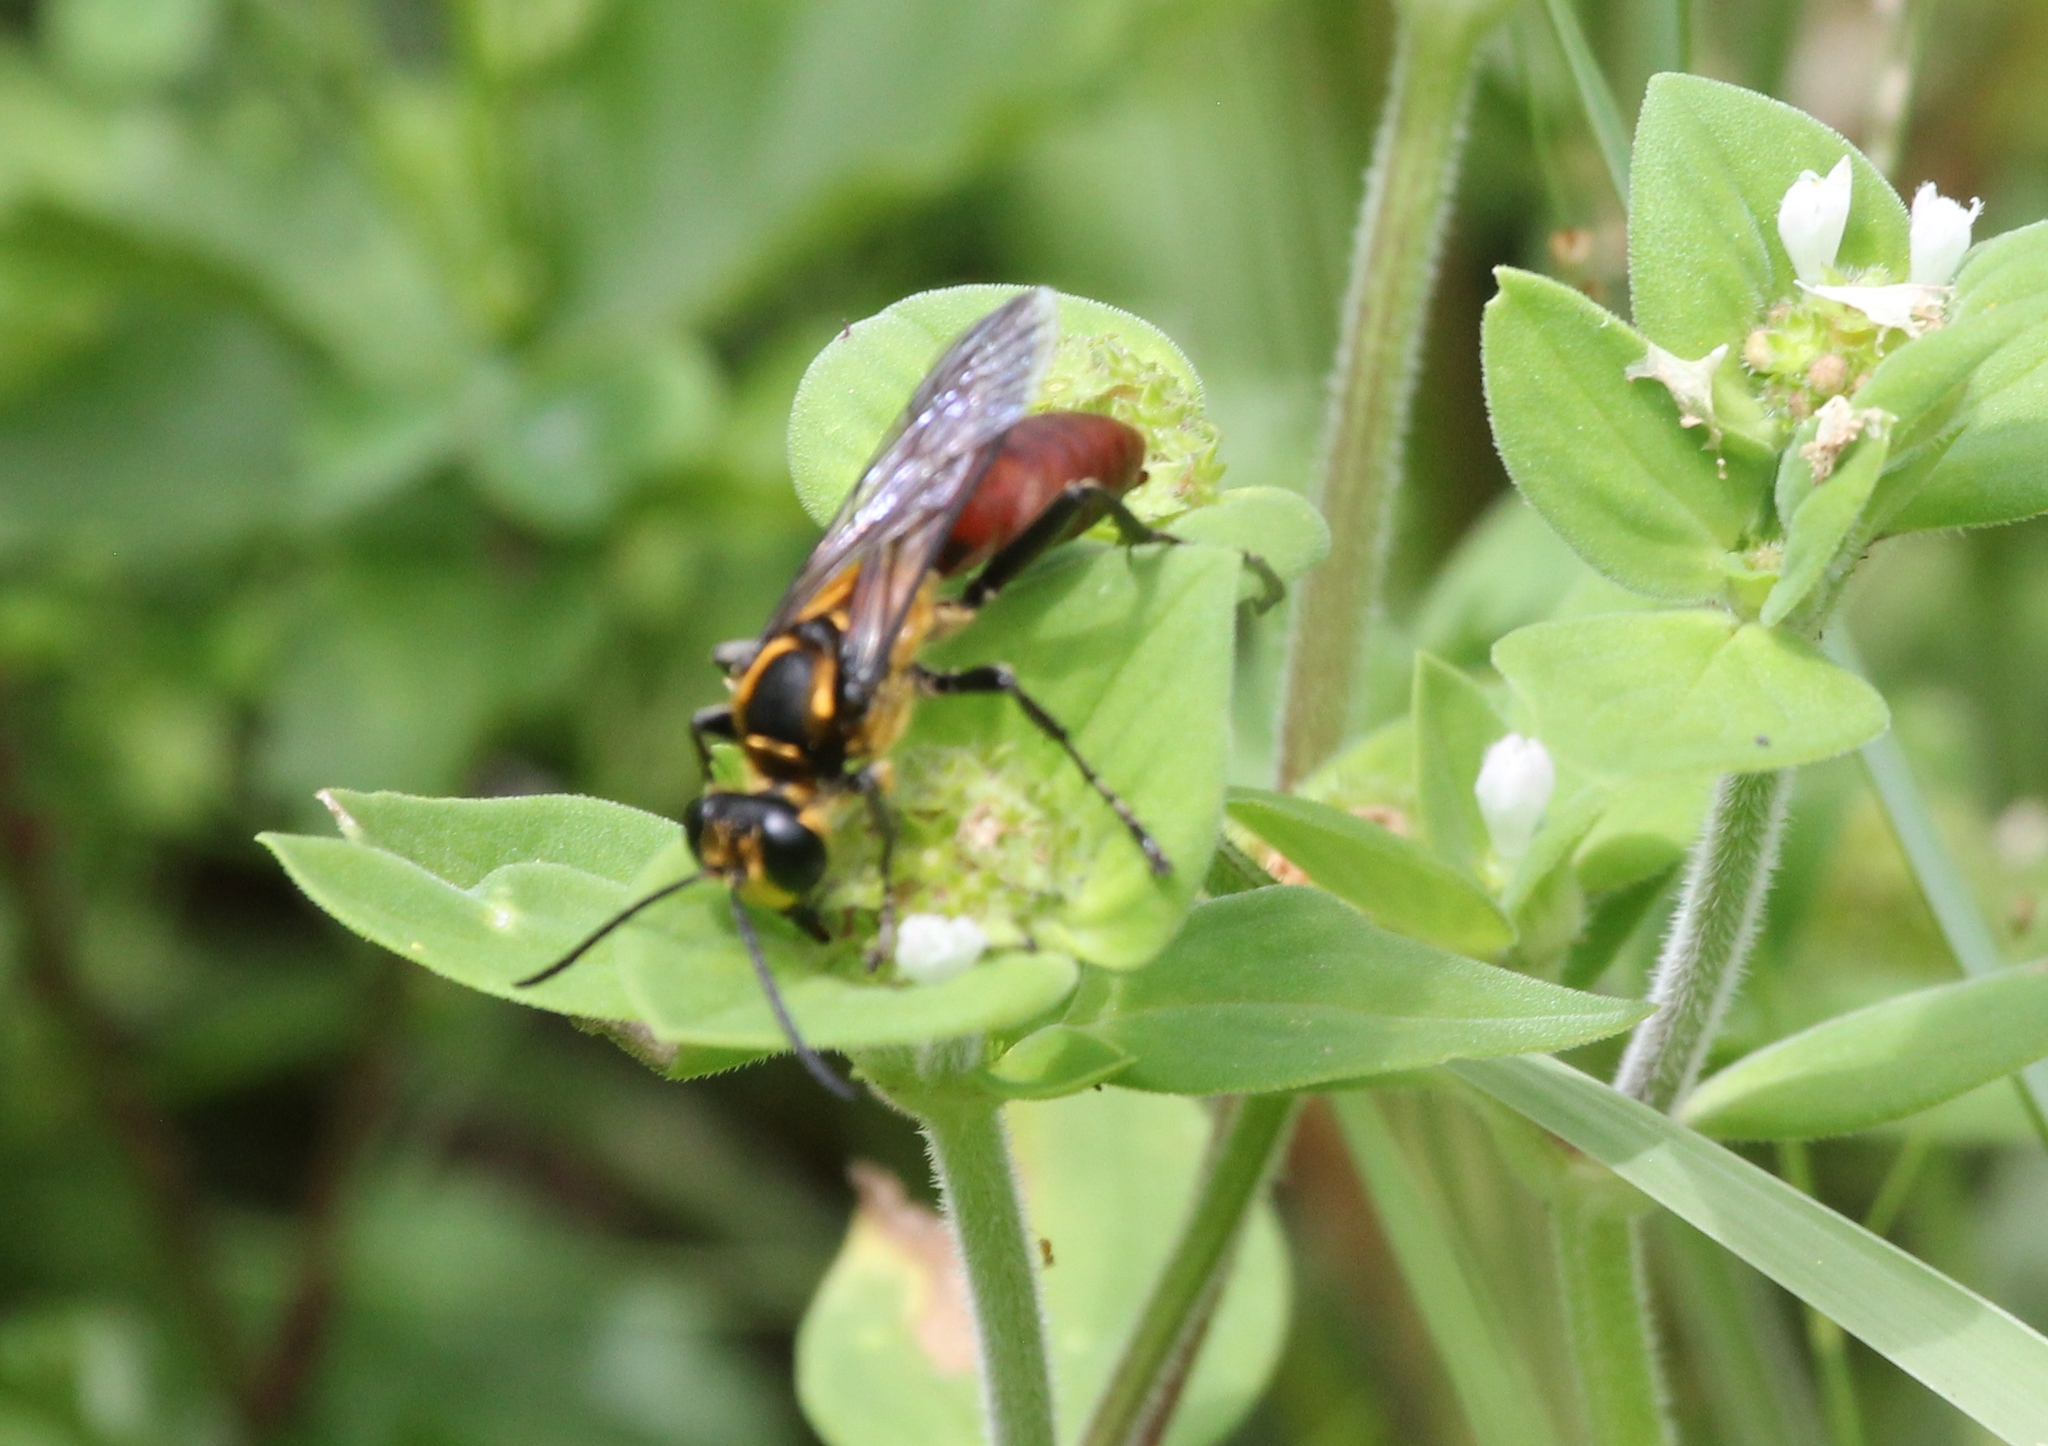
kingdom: Animalia
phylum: Arthropoda
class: Insecta
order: Hymenoptera
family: Sphecidae
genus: Sphex
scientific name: Sphex habenus
